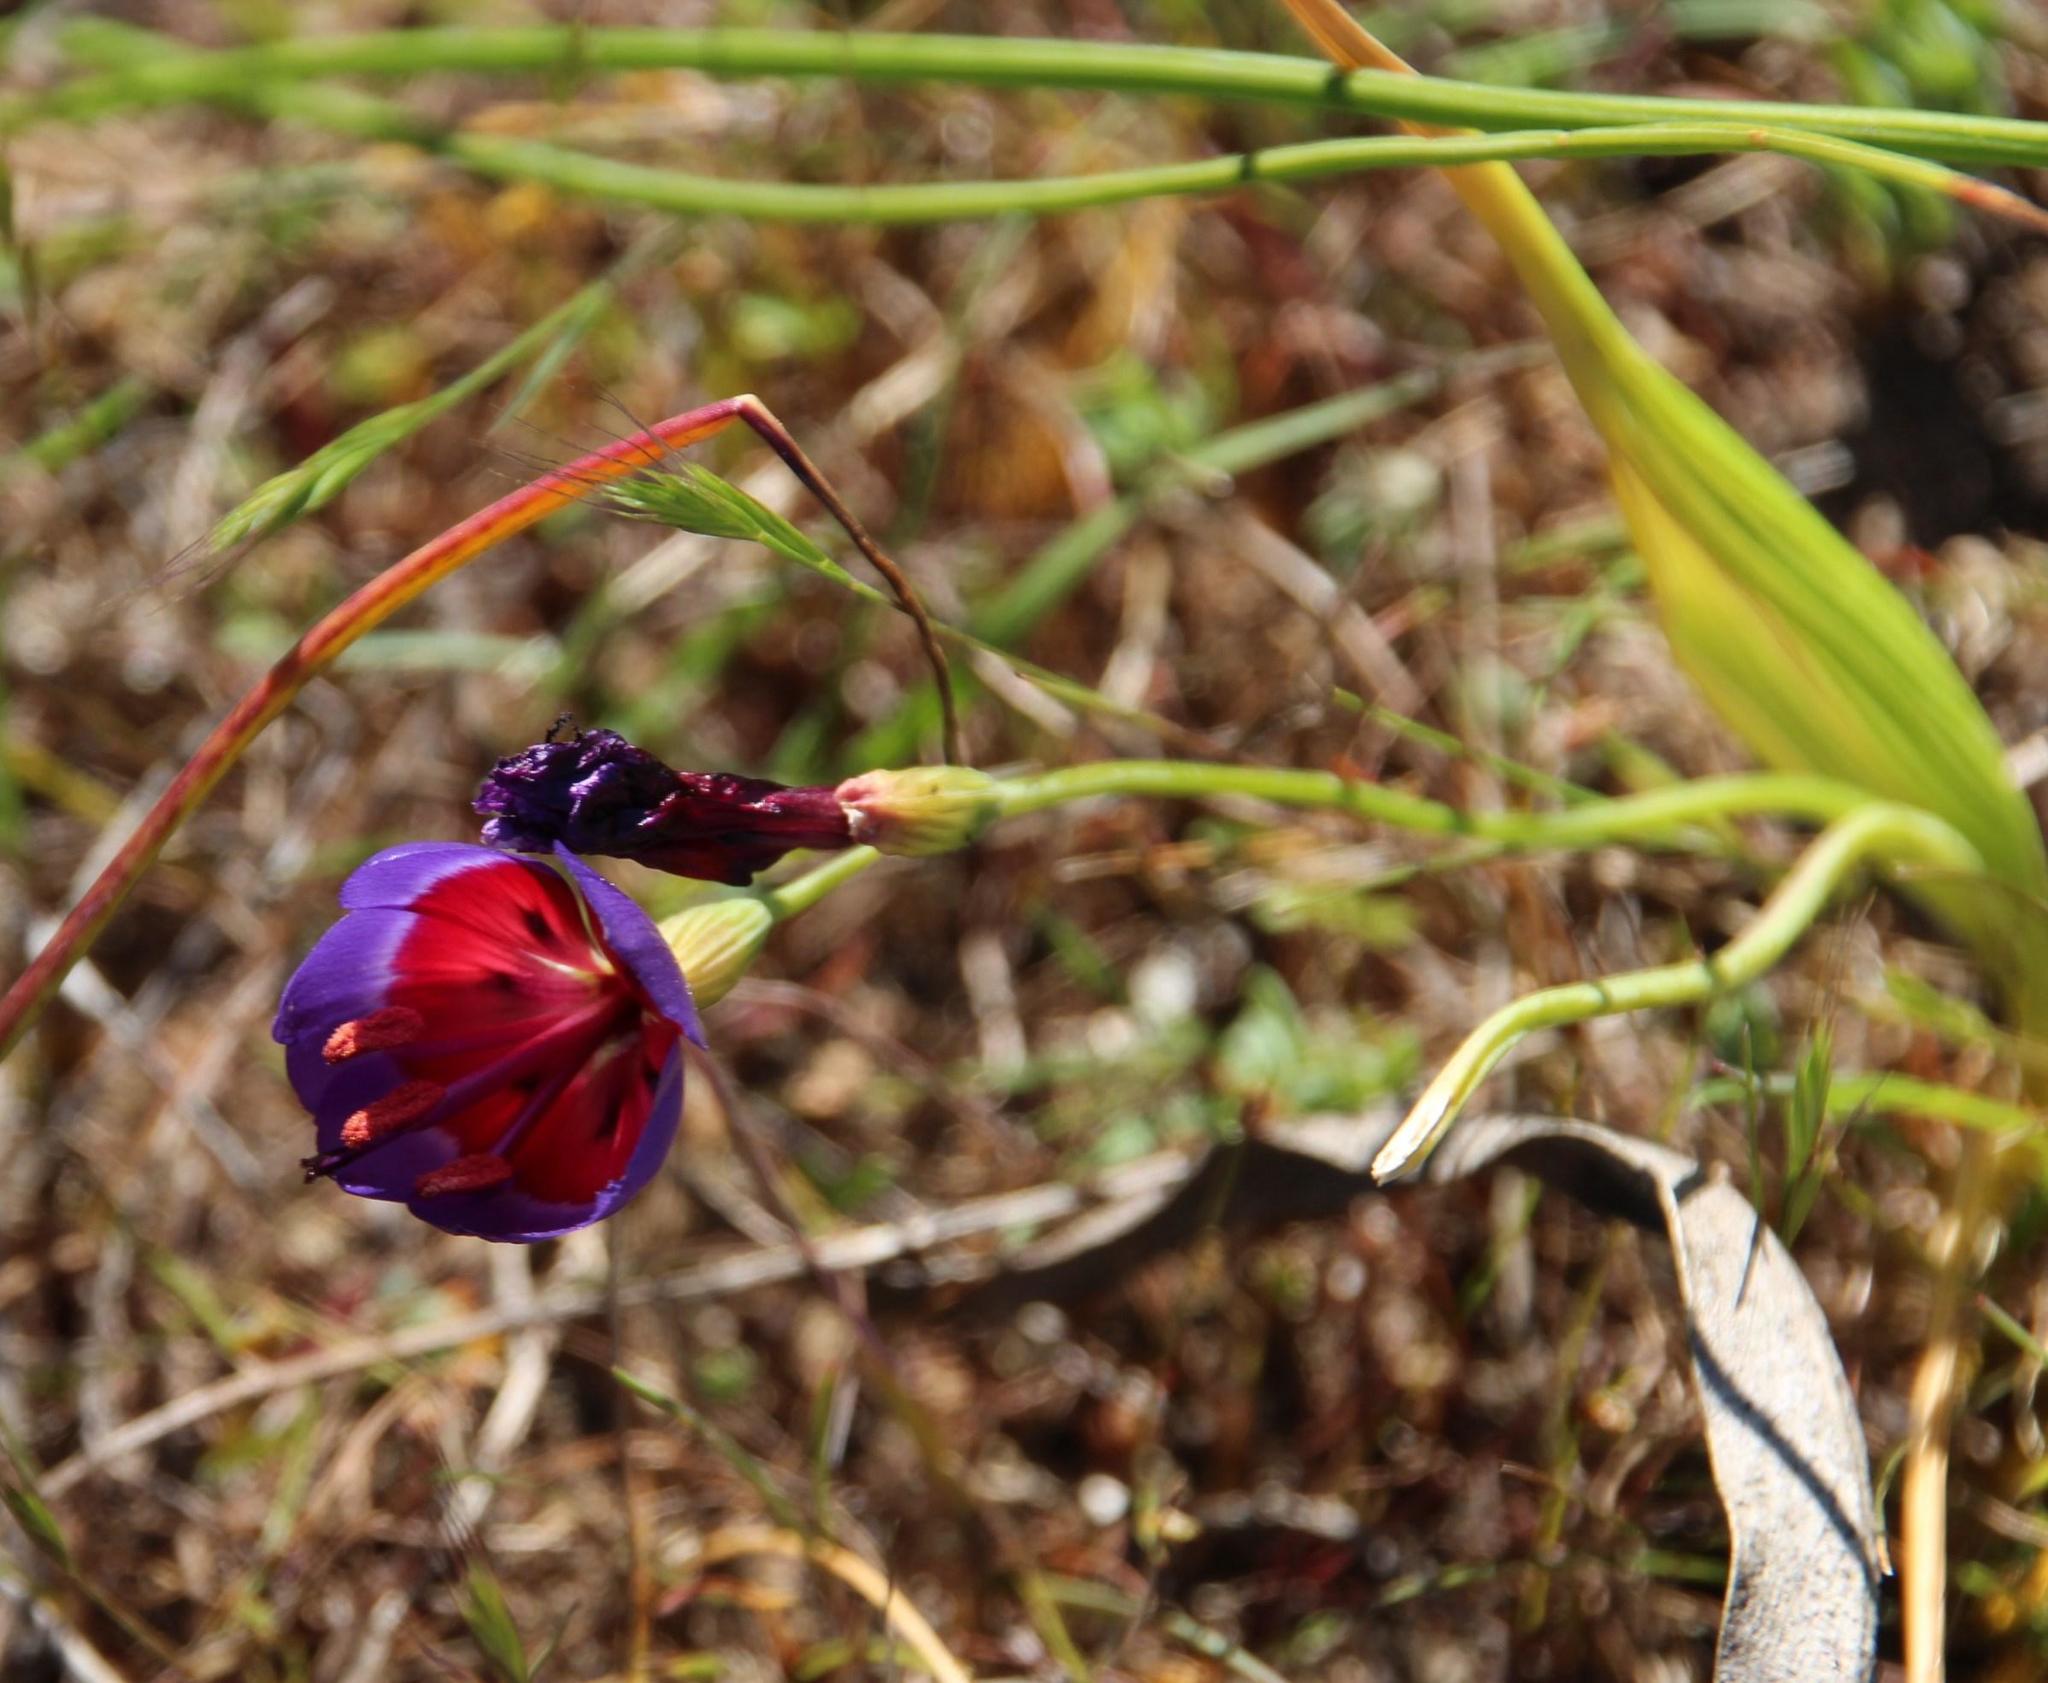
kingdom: Plantae
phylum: Tracheophyta
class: Liliopsida
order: Asparagales
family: Iridaceae
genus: Geissorhiza
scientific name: Geissorhiza radians
